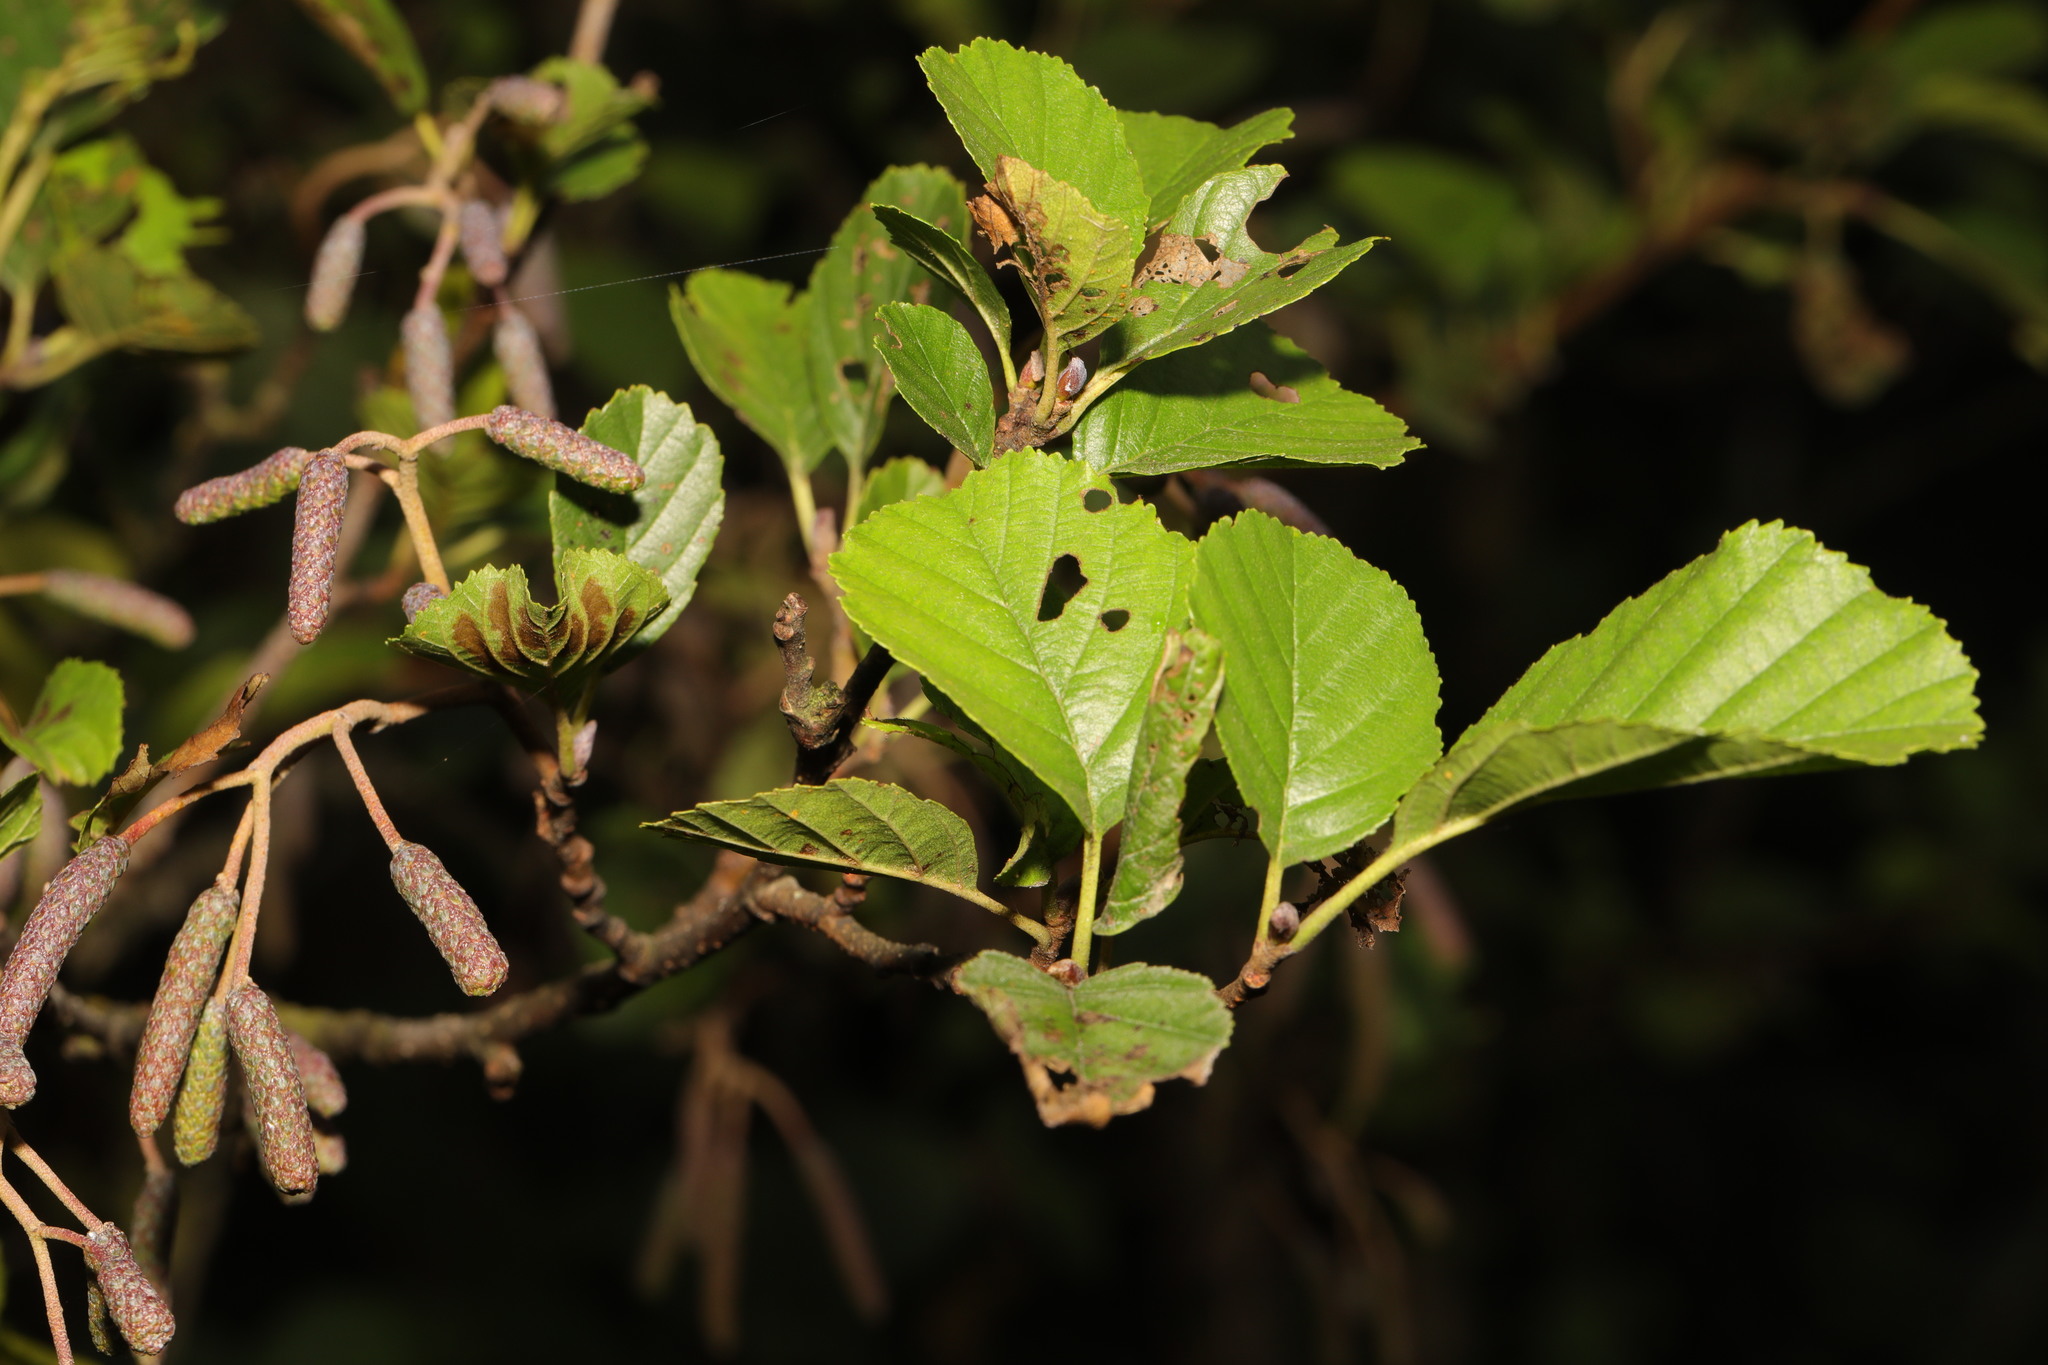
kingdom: Plantae
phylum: Tracheophyta
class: Magnoliopsida
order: Fagales
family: Betulaceae
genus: Alnus
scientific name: Alnus glutinosa
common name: Black alder
